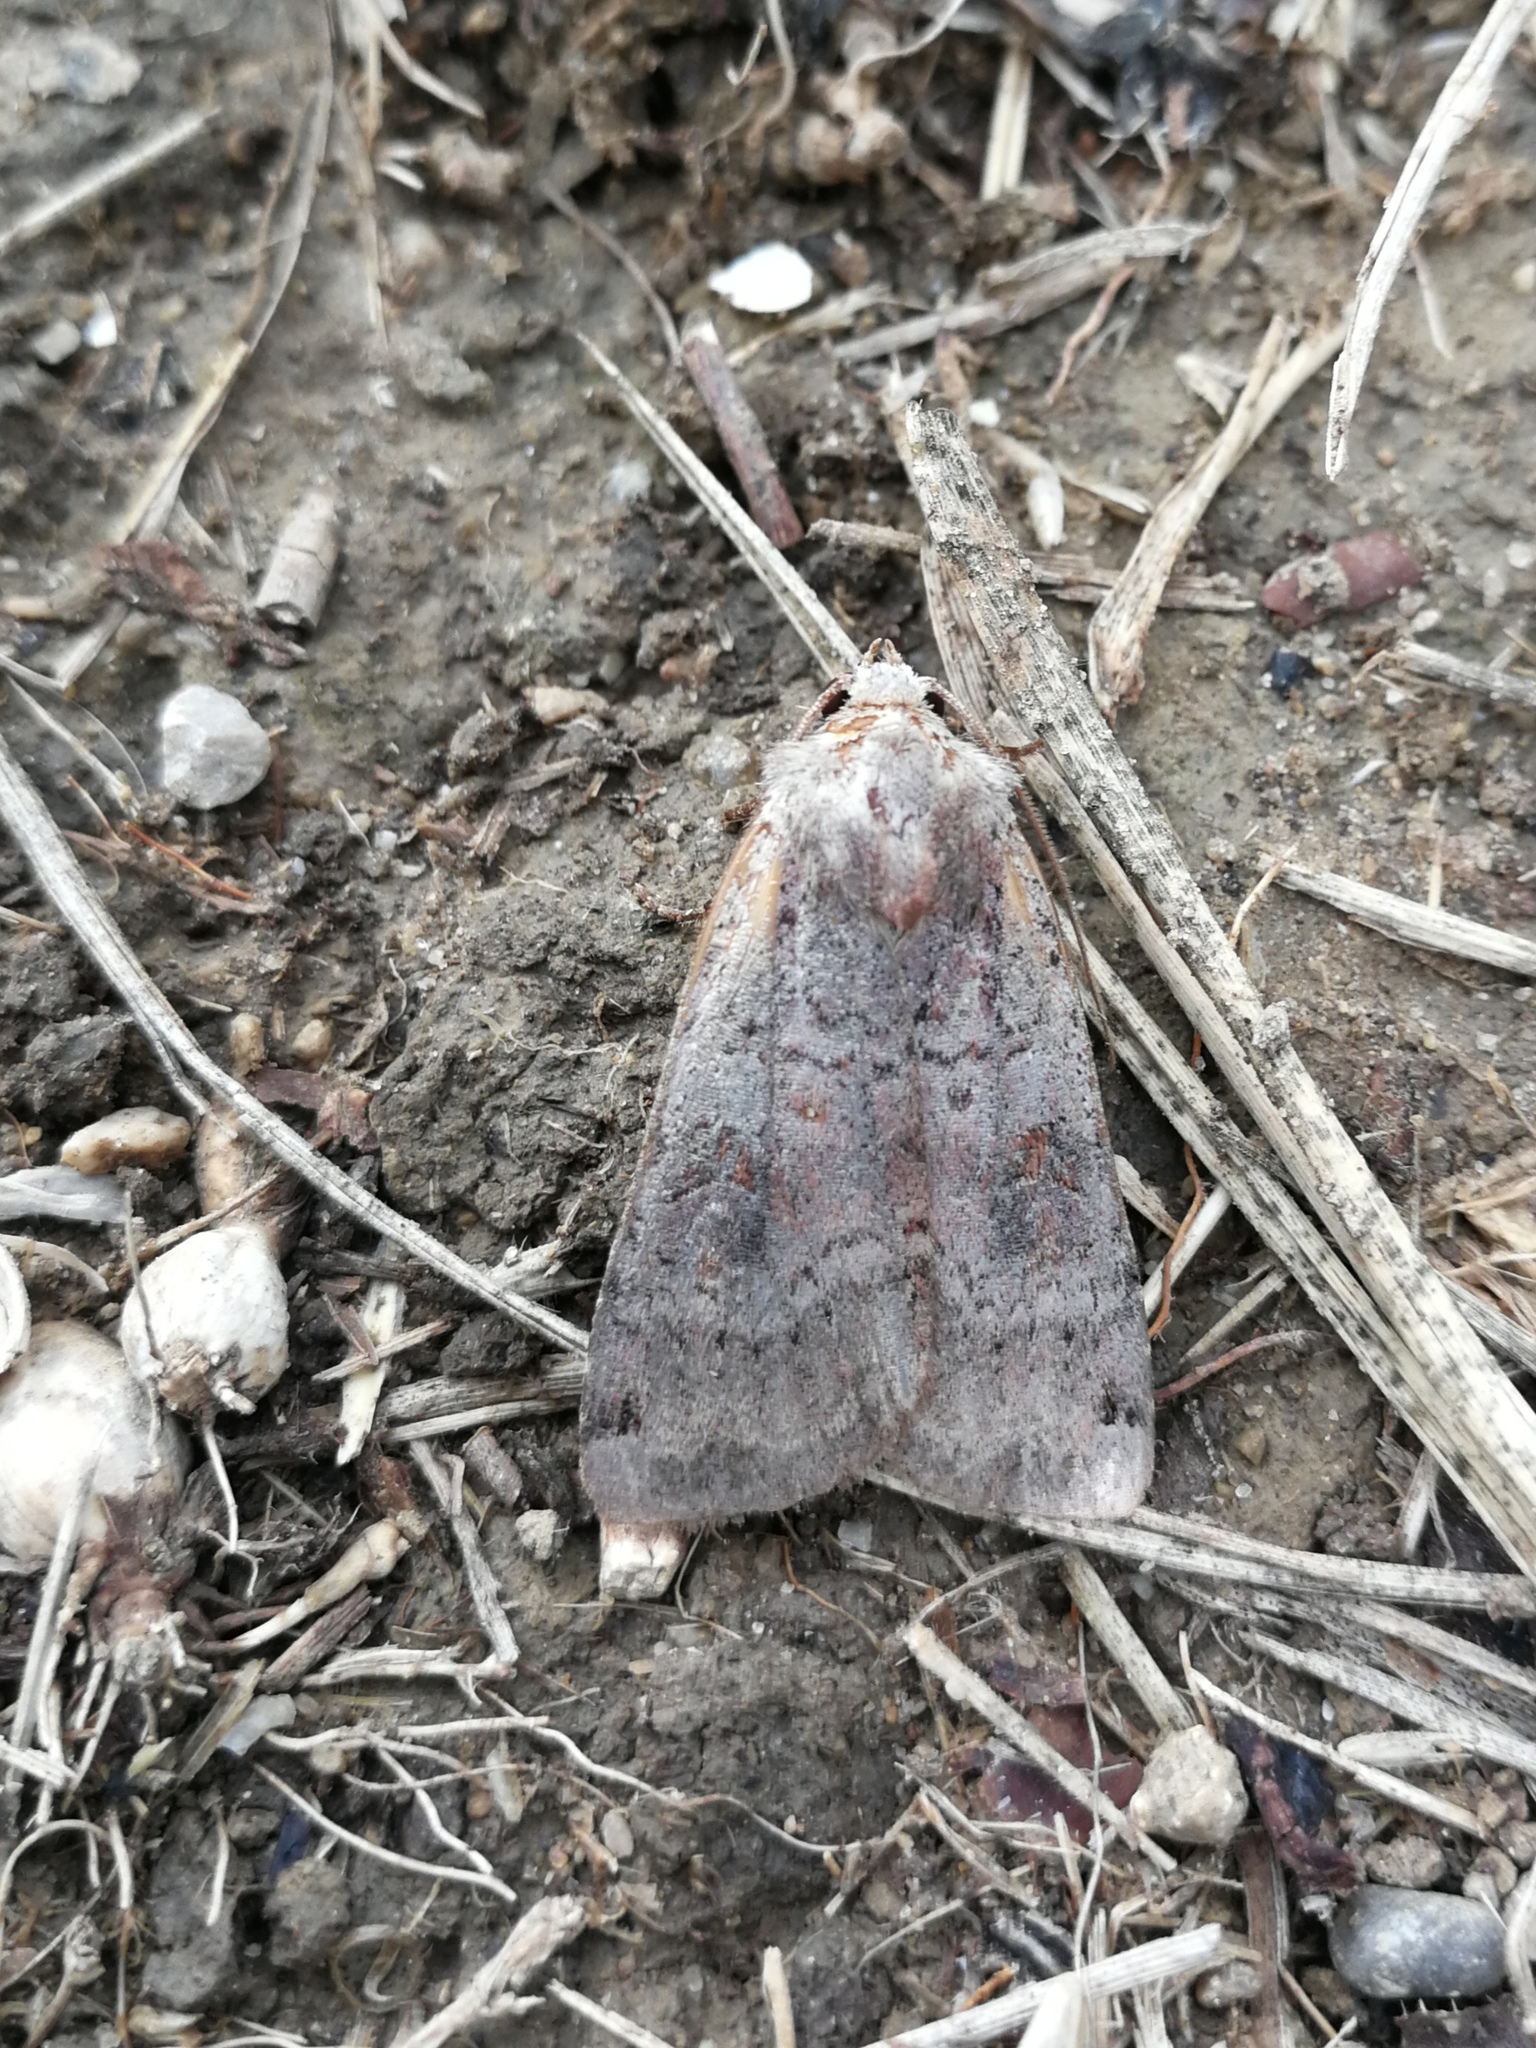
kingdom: Animalia
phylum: Arthropoda
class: Insecta
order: Lepidoptera
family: Noctuidae
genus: Xestia
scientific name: Xestia baja
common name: Dotted clay
